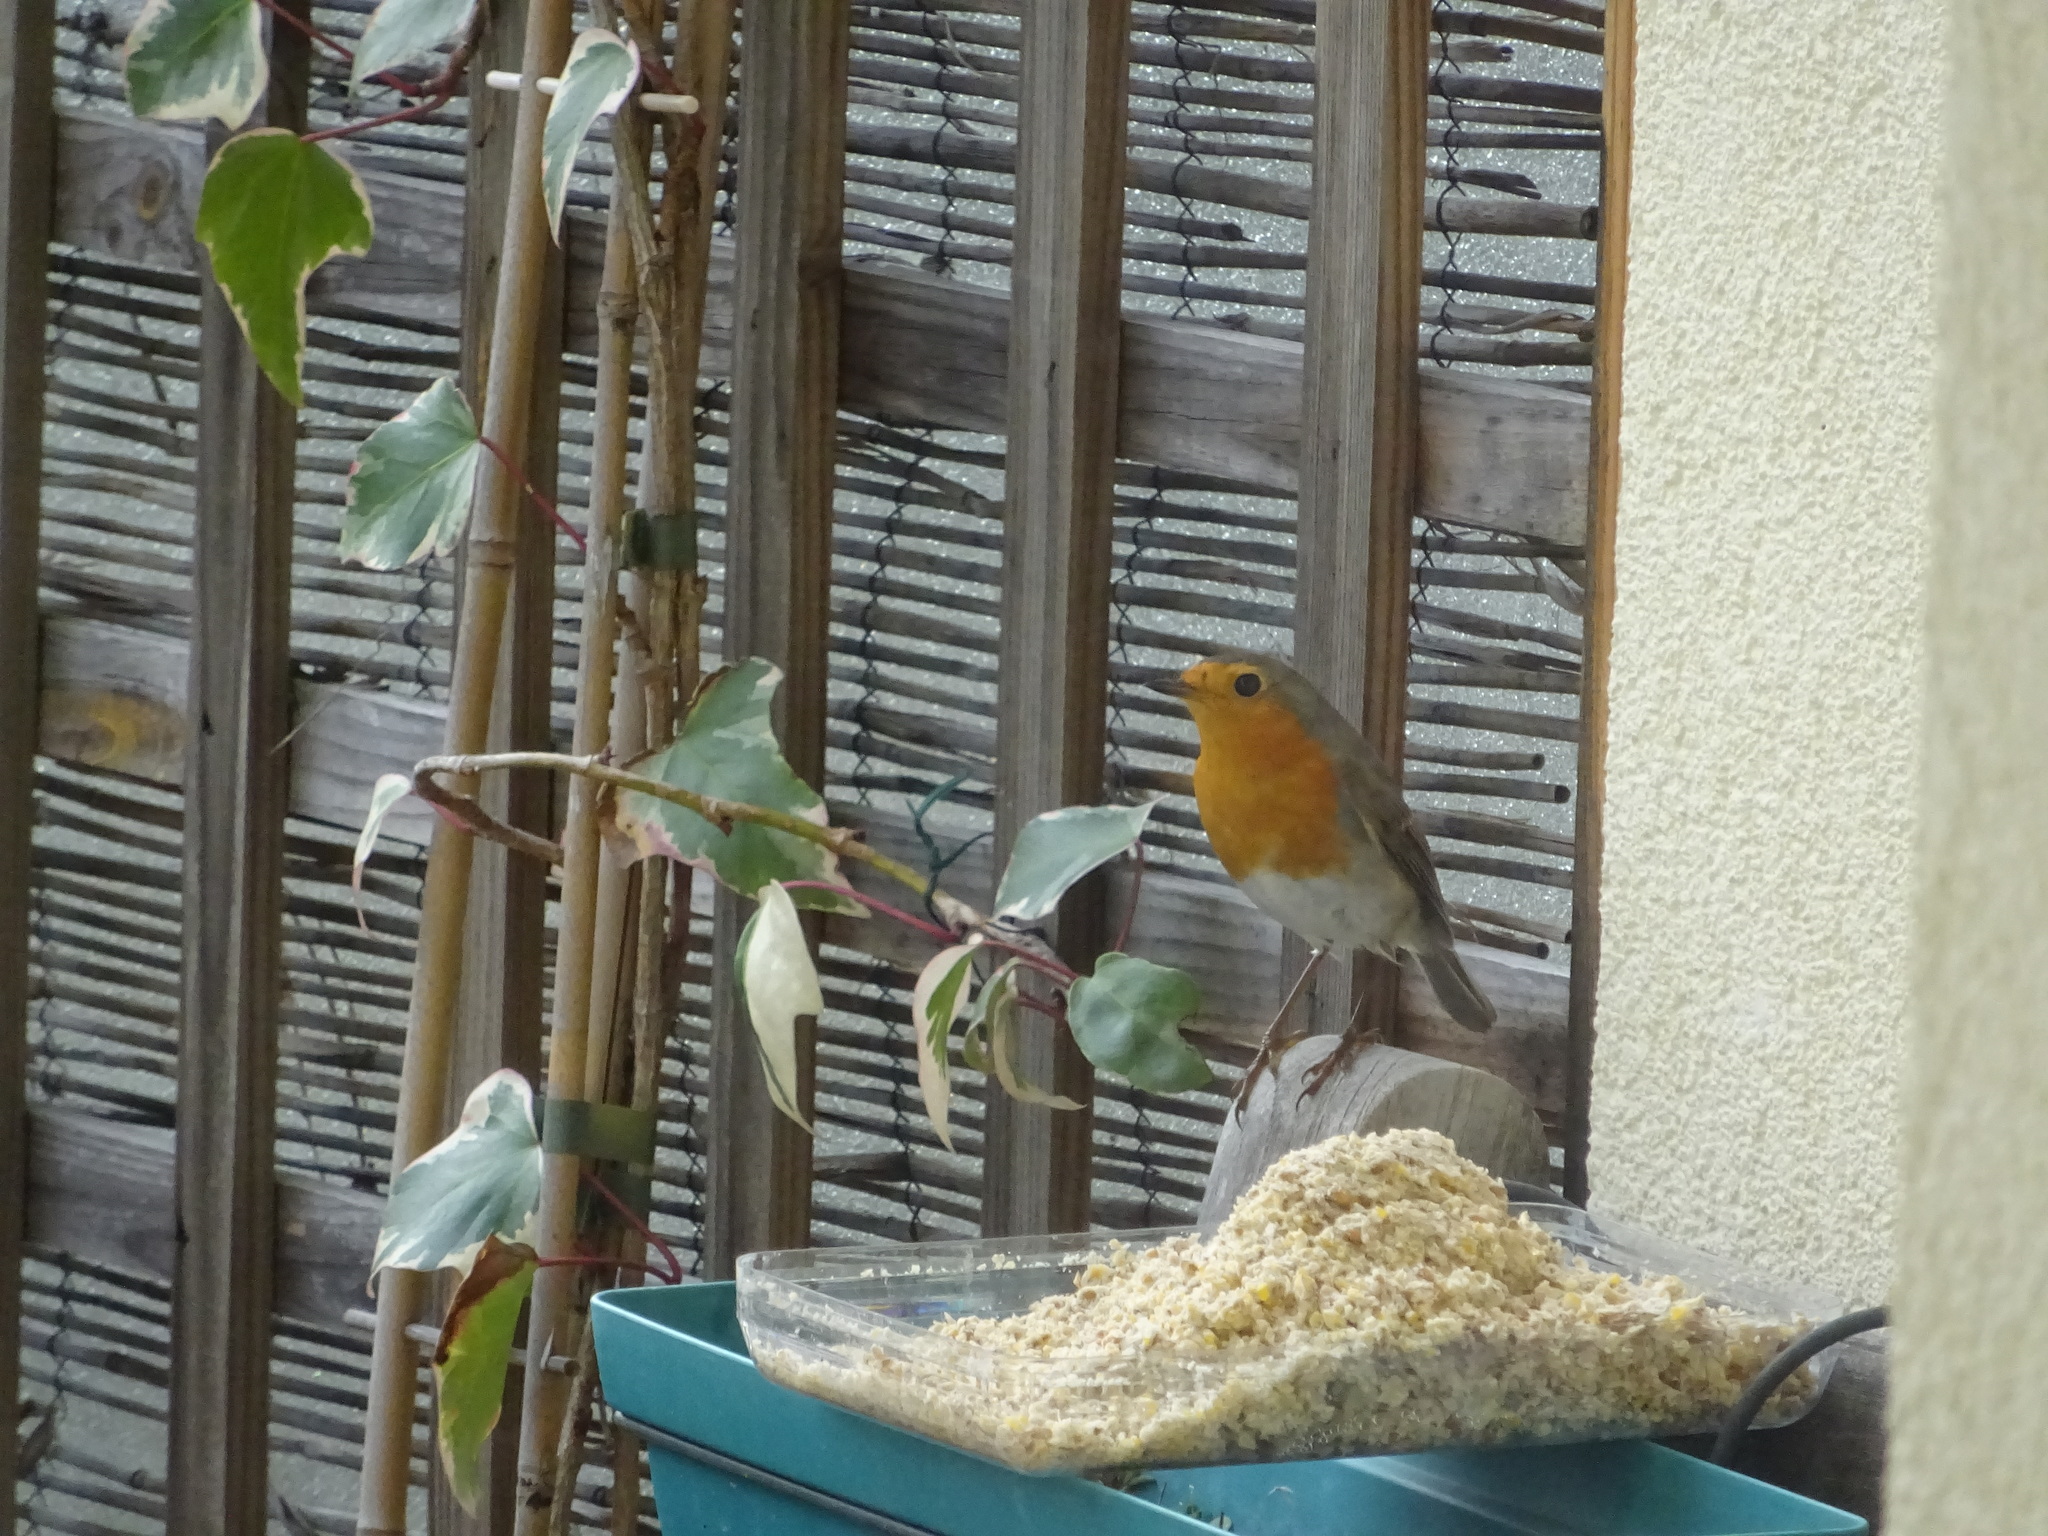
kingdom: Animalia
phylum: Chordata
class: Aves
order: Passeriformes
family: Muscicapidae
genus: Erithacus
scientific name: Erithacus rubecula
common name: European robin
